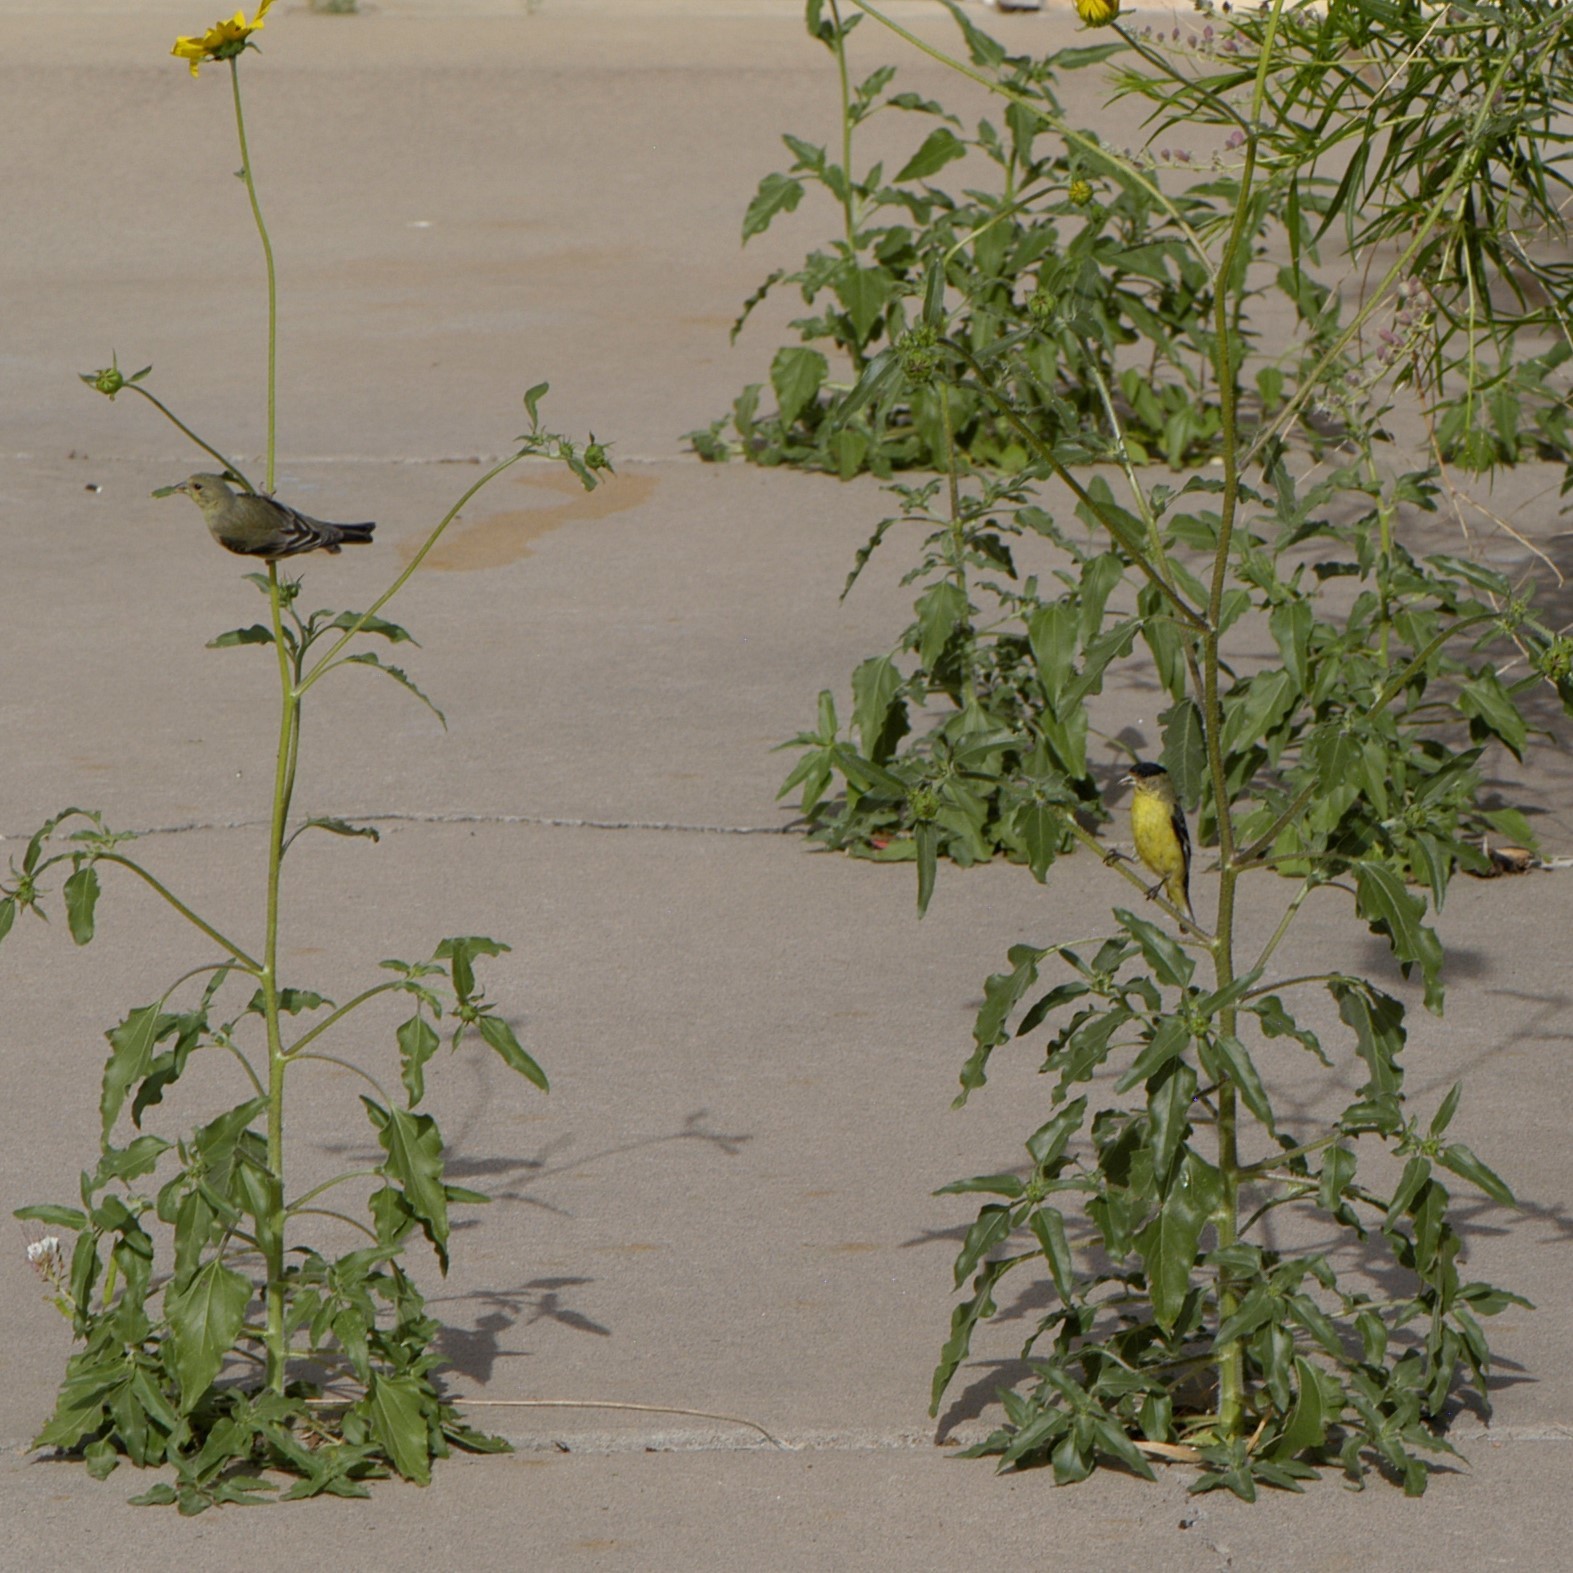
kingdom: Animalia
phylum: Chordata
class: Aves
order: Passeriformes
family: Fringillidae
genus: Spinus
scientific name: Spinus psaltria
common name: Lesser goldfinch
